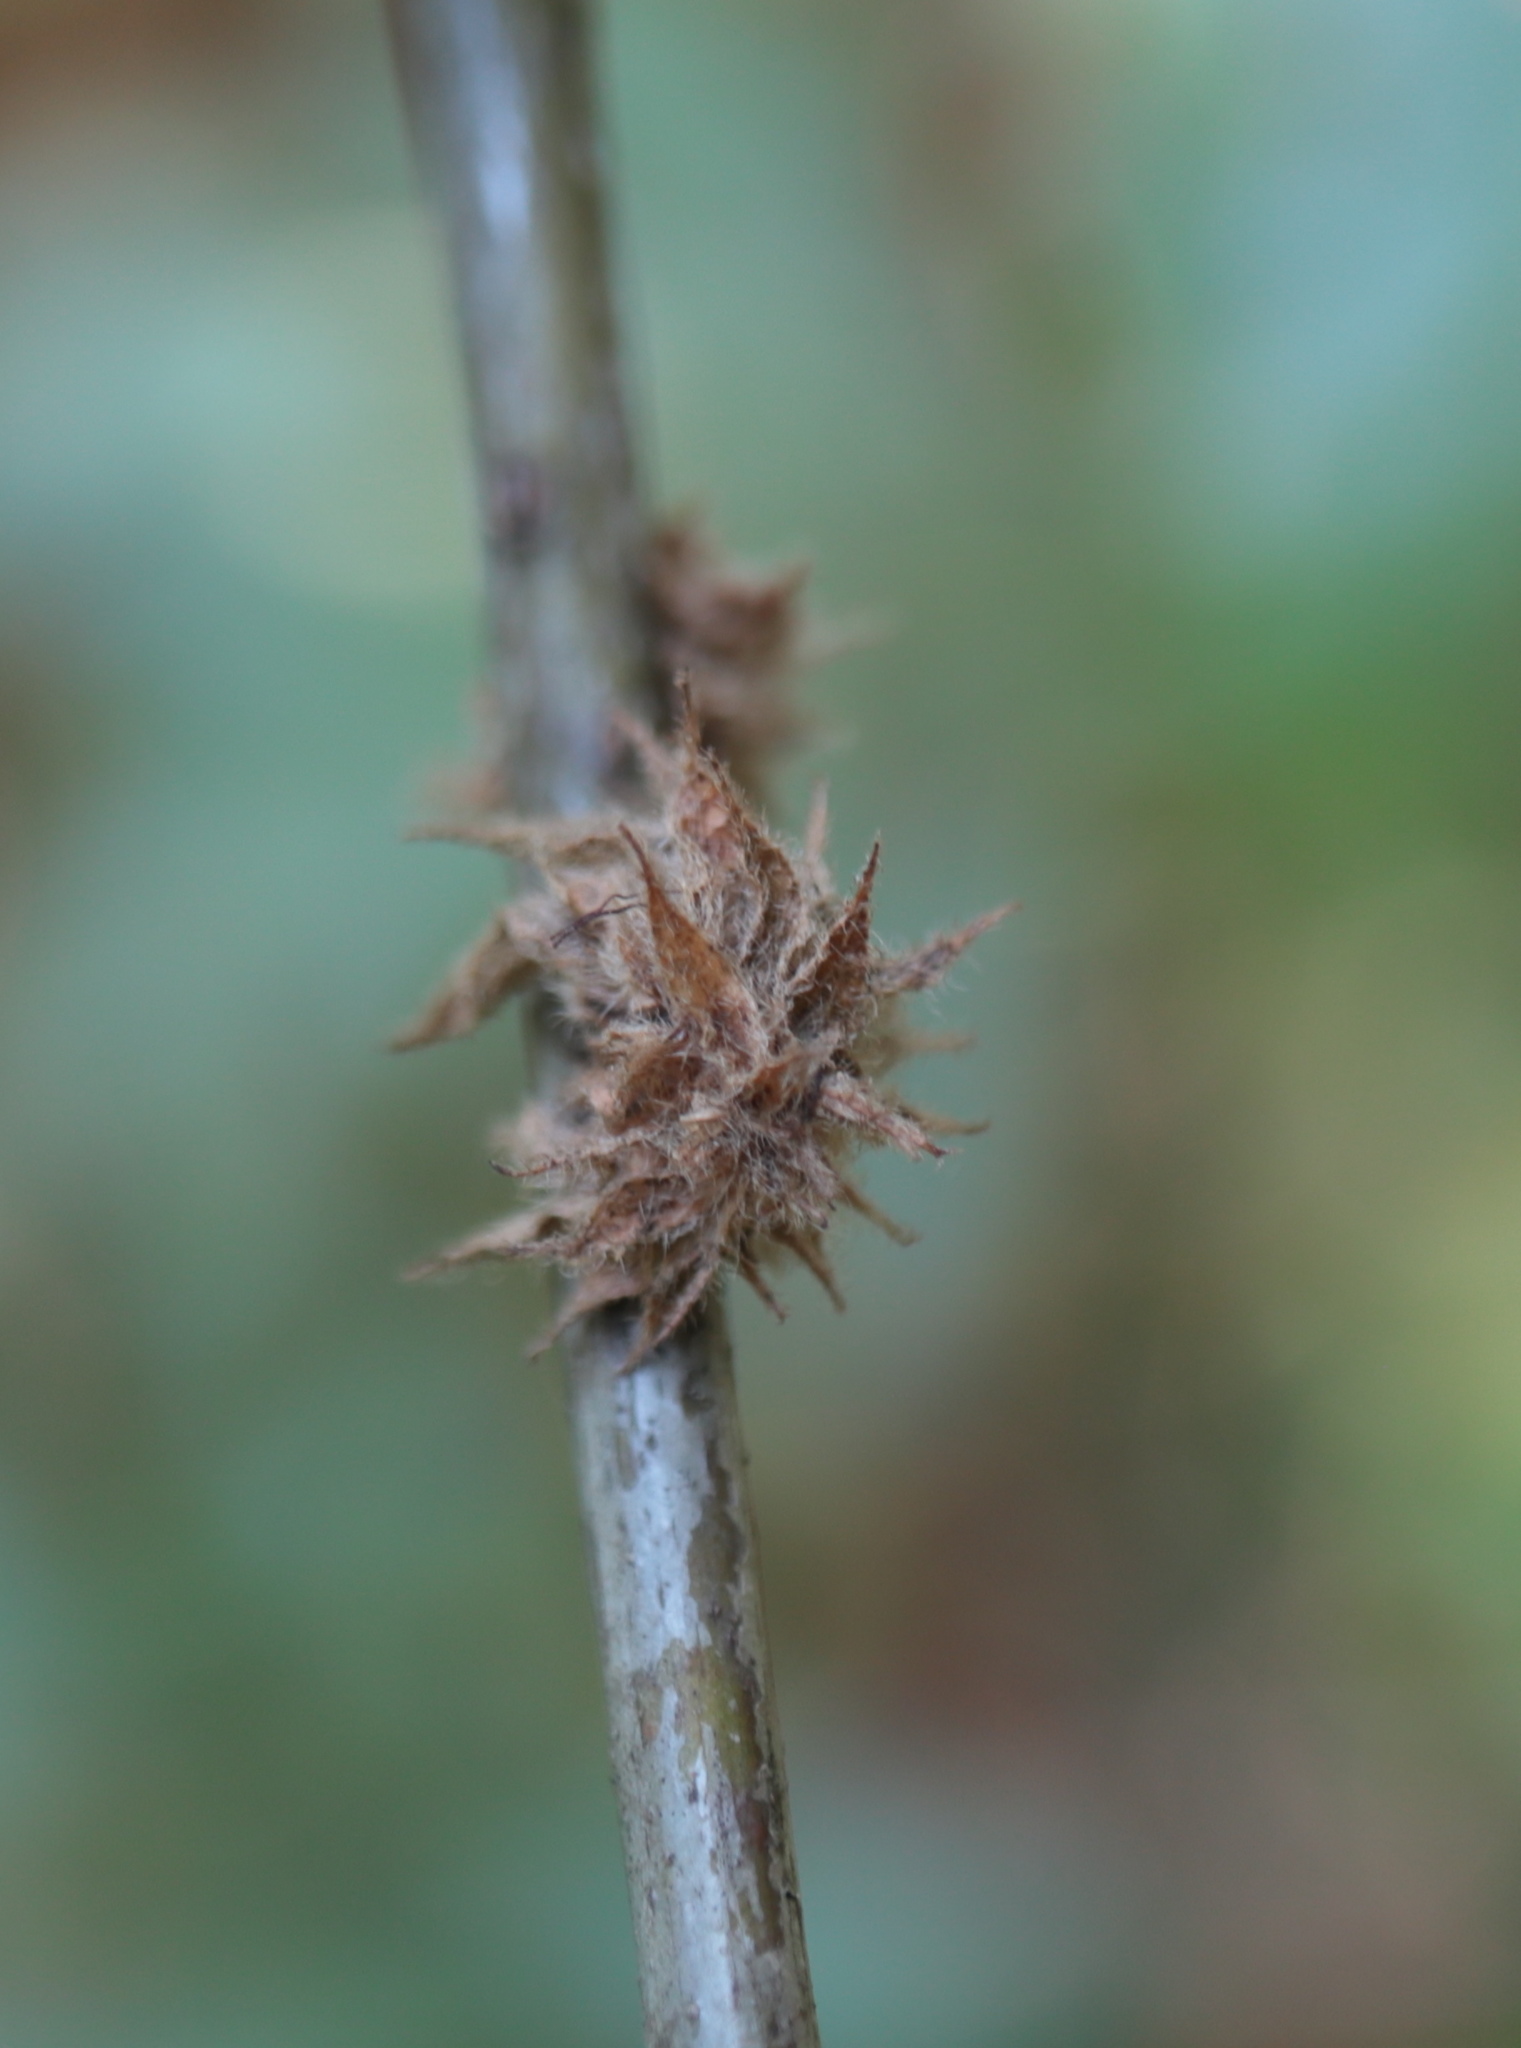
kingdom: Animalia
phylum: Arthropoda
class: Insecta
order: Hymenoptera
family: Cynipidae
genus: Dryocosmus
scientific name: Dryocosmus
